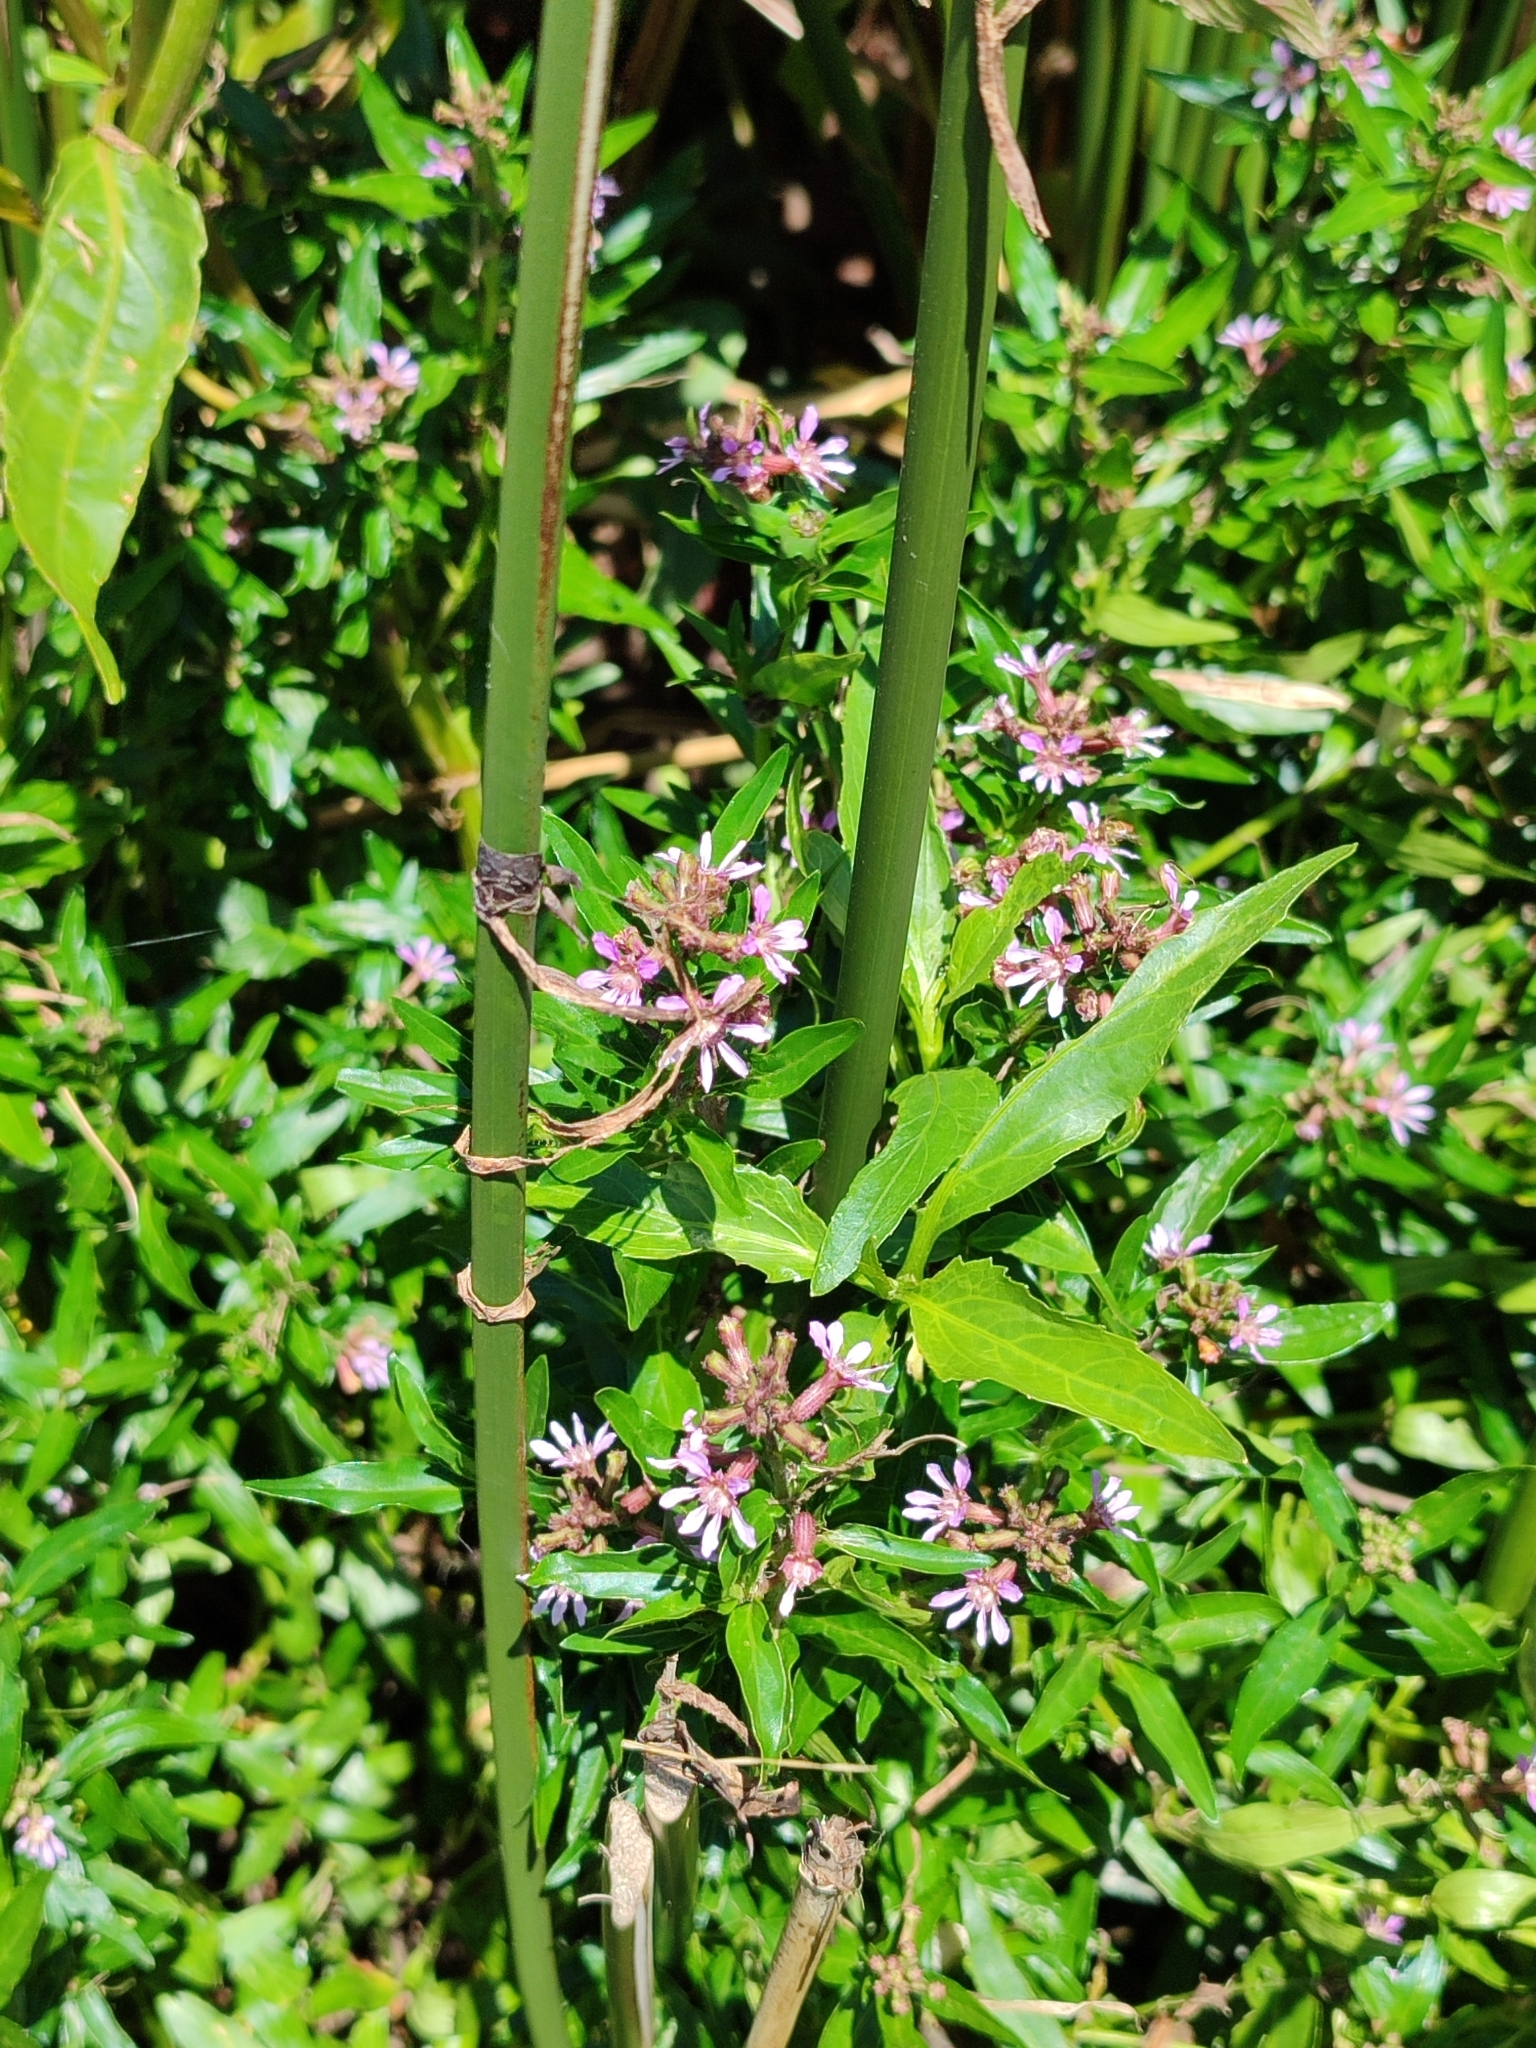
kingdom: Plantae
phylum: Tracheophyta
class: Magnoliopsida
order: Myrtales
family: Lythraceae
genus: Cuphea
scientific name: Cuphea fruticosa
